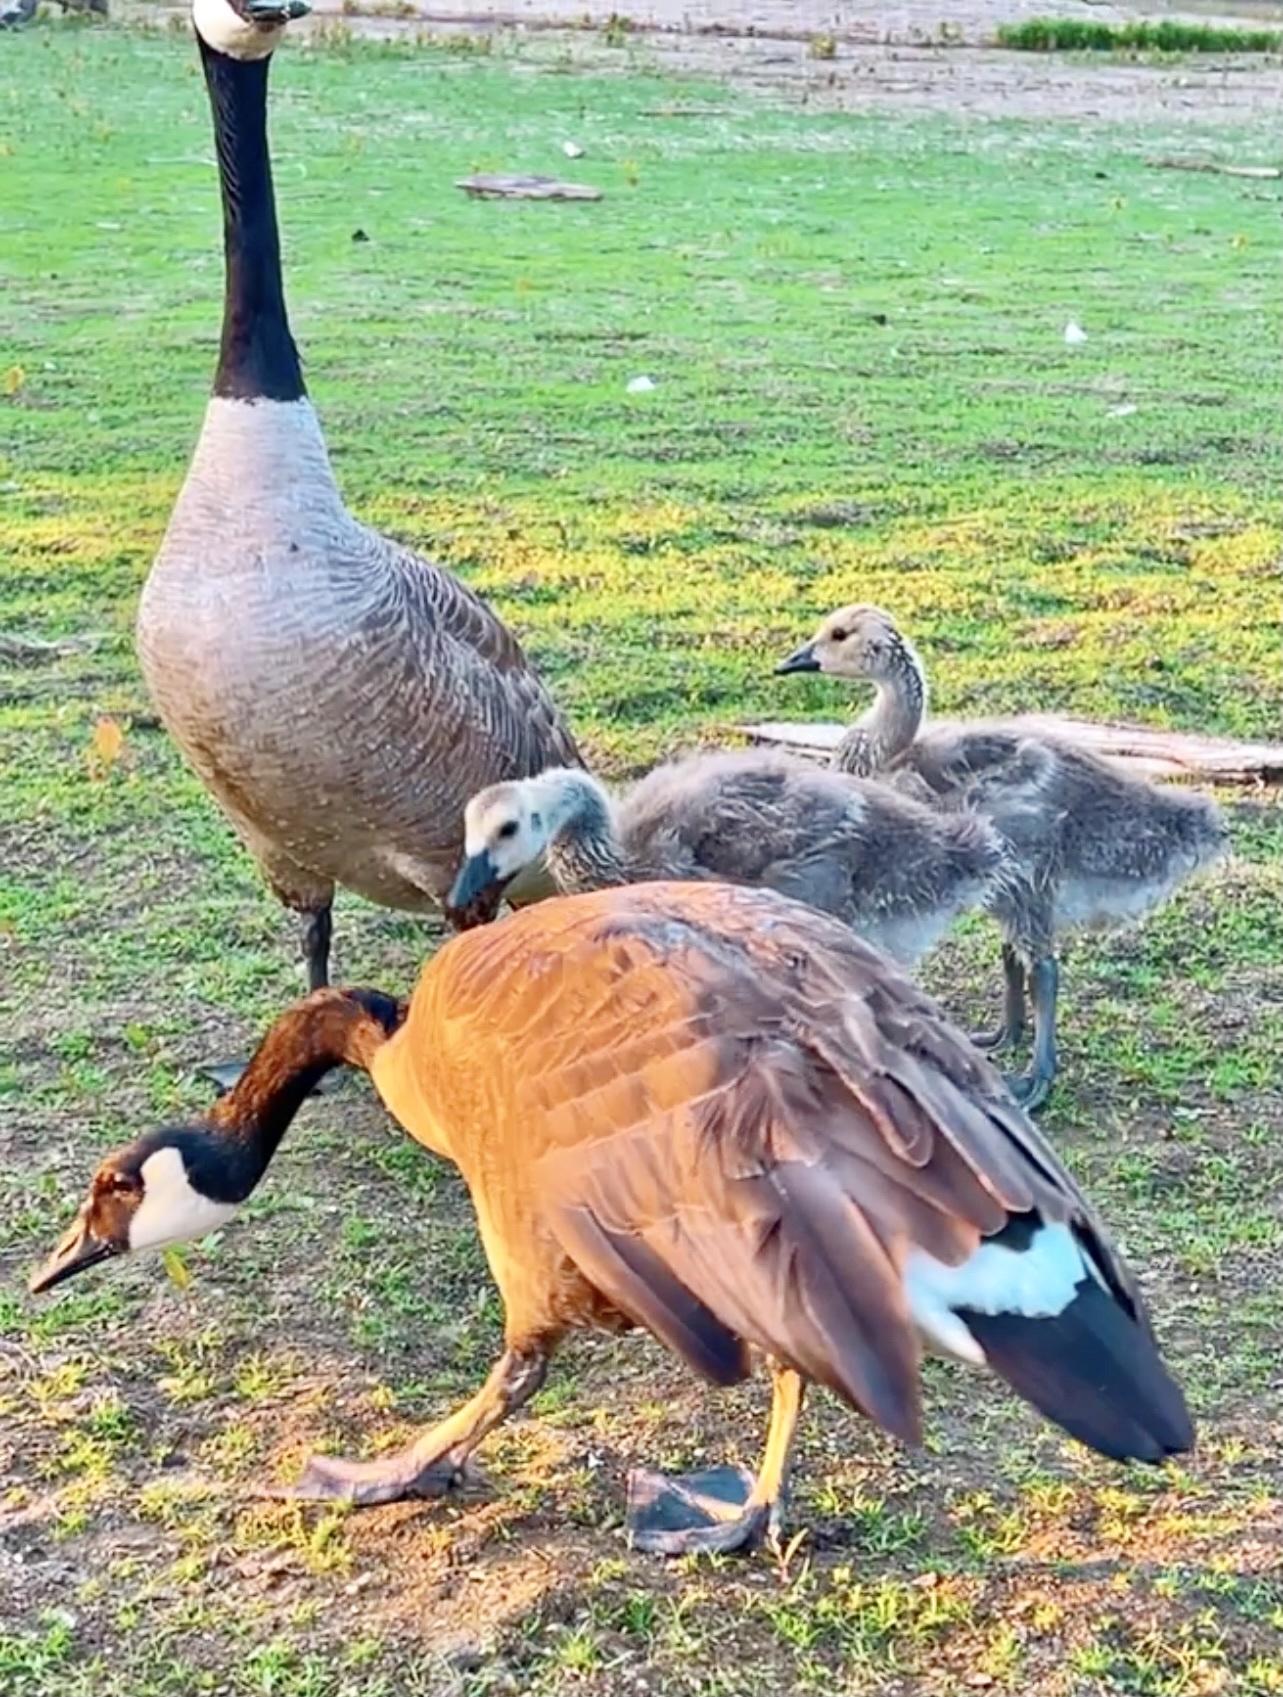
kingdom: Animalia
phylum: Chordata
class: Aves
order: Anseriformes
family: Anatidae
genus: Branta
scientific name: Branta canadensis
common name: Canada goose
